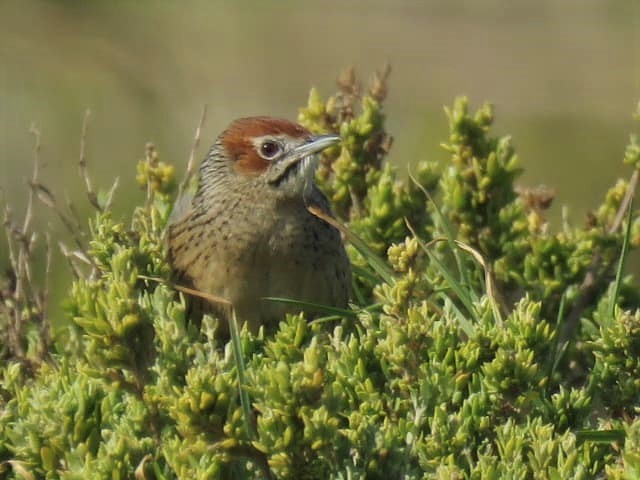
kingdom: Animalia
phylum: Chordata
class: Aves
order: Passeriformes
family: Macrosphenidae
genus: Sphenoeacus
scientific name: Sphenoeacus afer
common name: Cape grassbird
